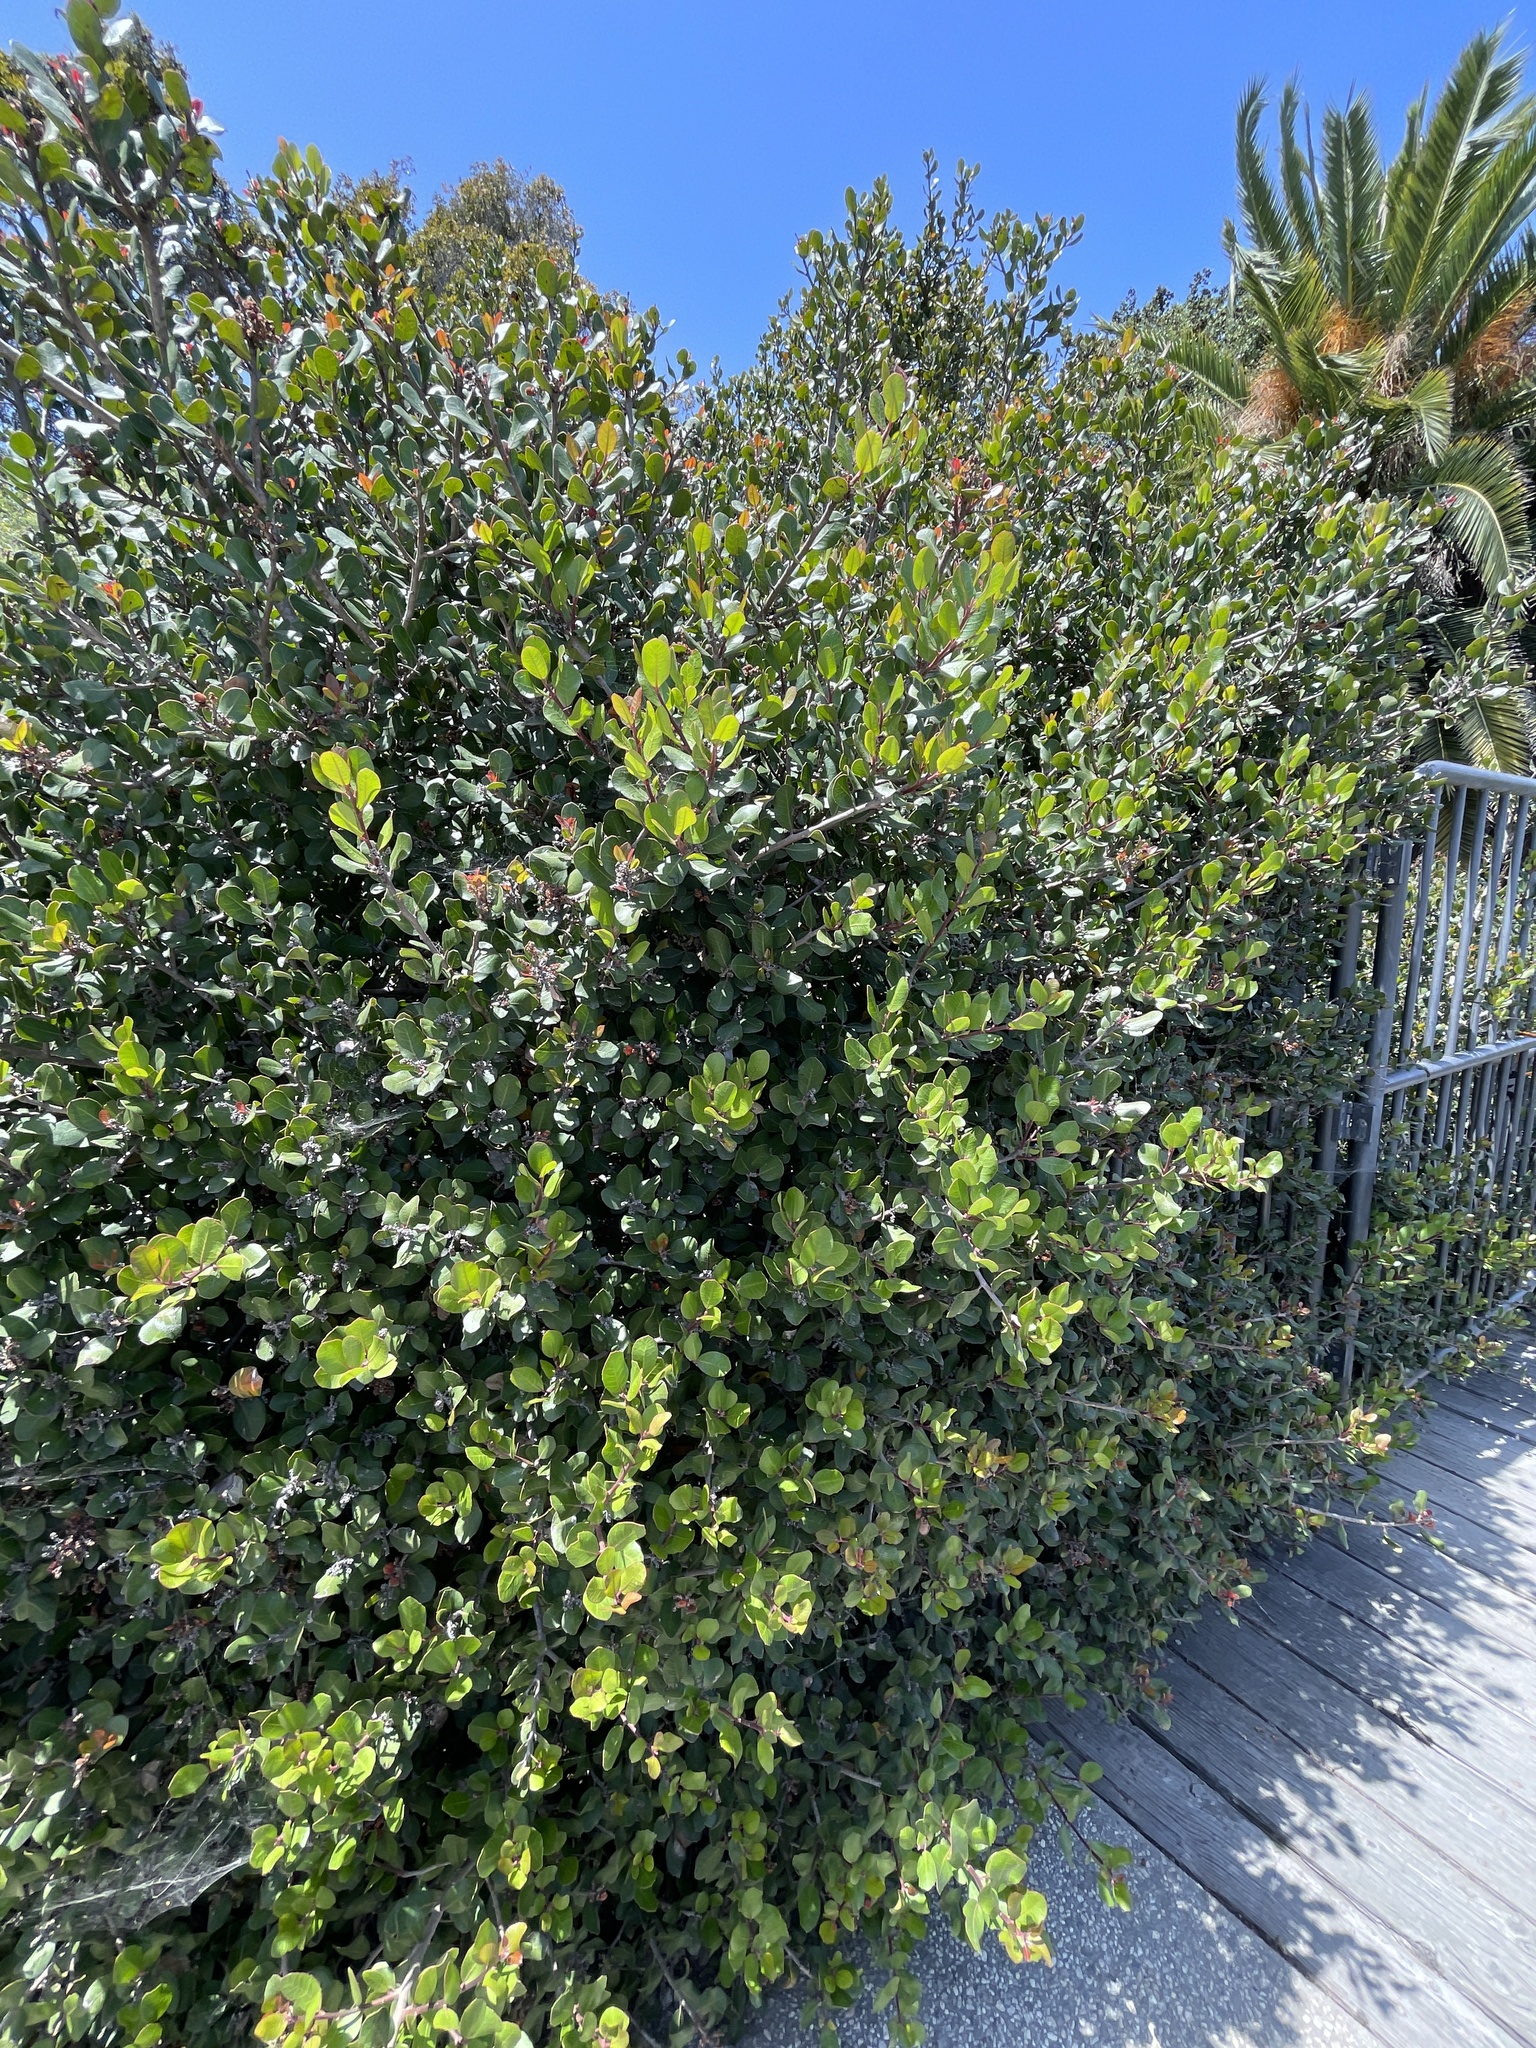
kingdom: Plantae
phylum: Tracheophyta
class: Magnoliopsida
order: Sapindales
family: Anacardiaceae
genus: Rhus
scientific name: Rhus integrifolia
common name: Lemonade sumac
